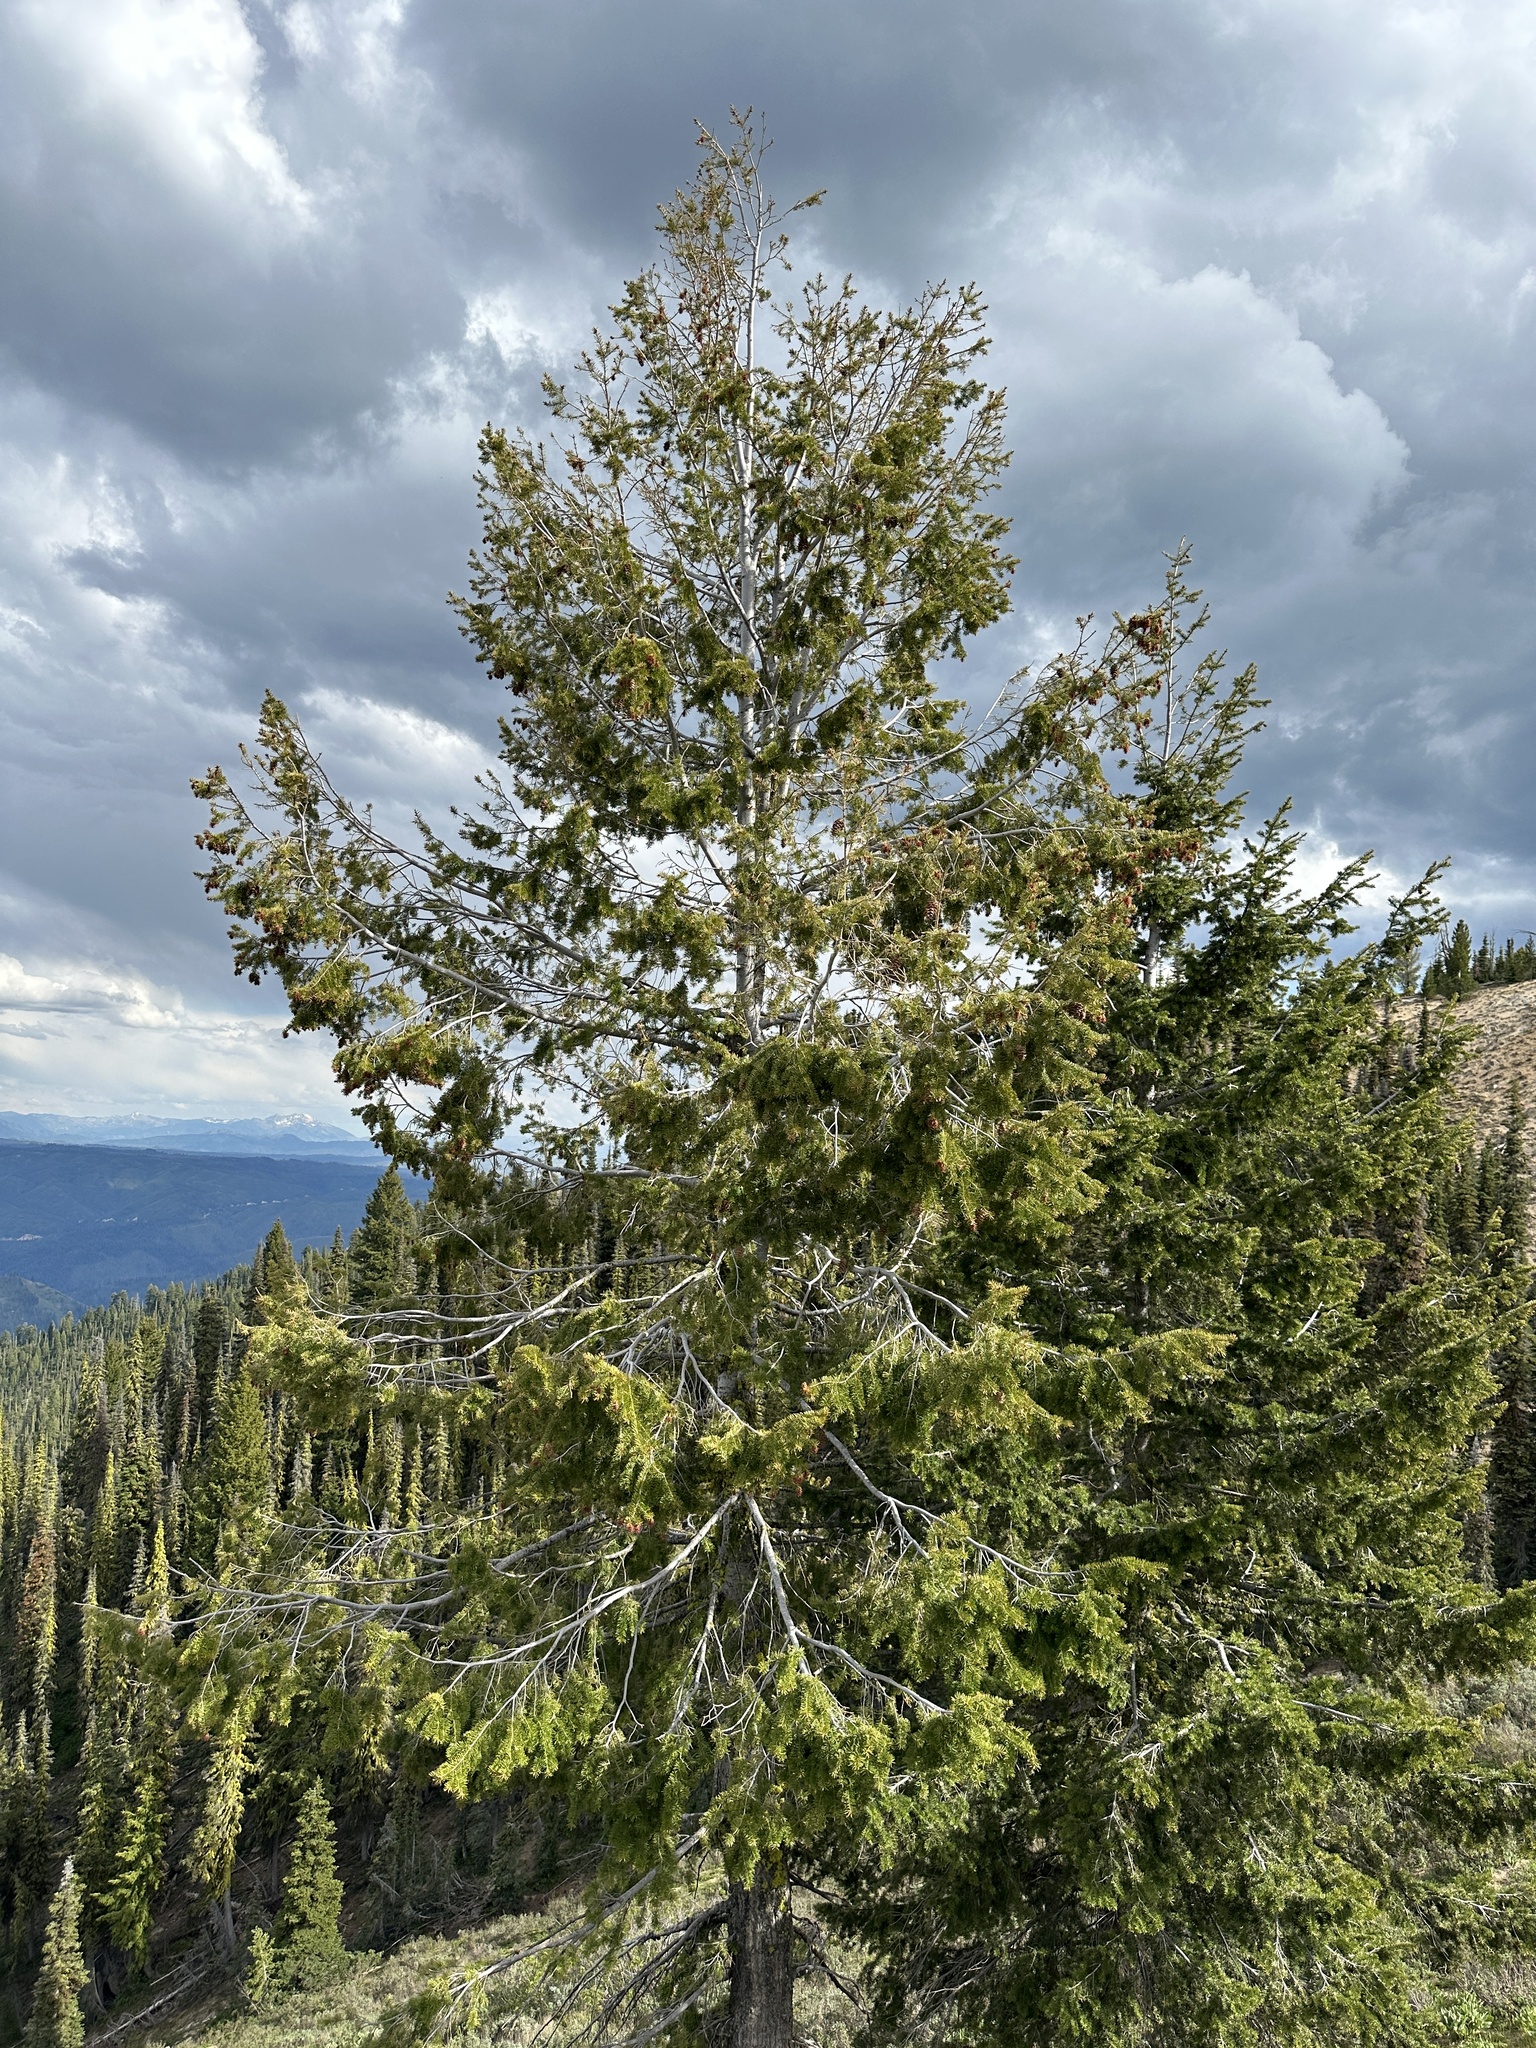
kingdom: Plantae
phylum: Tracheophyta
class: Pinopsida
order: Pinales
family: Pinaceae
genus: Pseudotsuga
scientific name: Pseudotsuga menziesii
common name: Douglas fir
